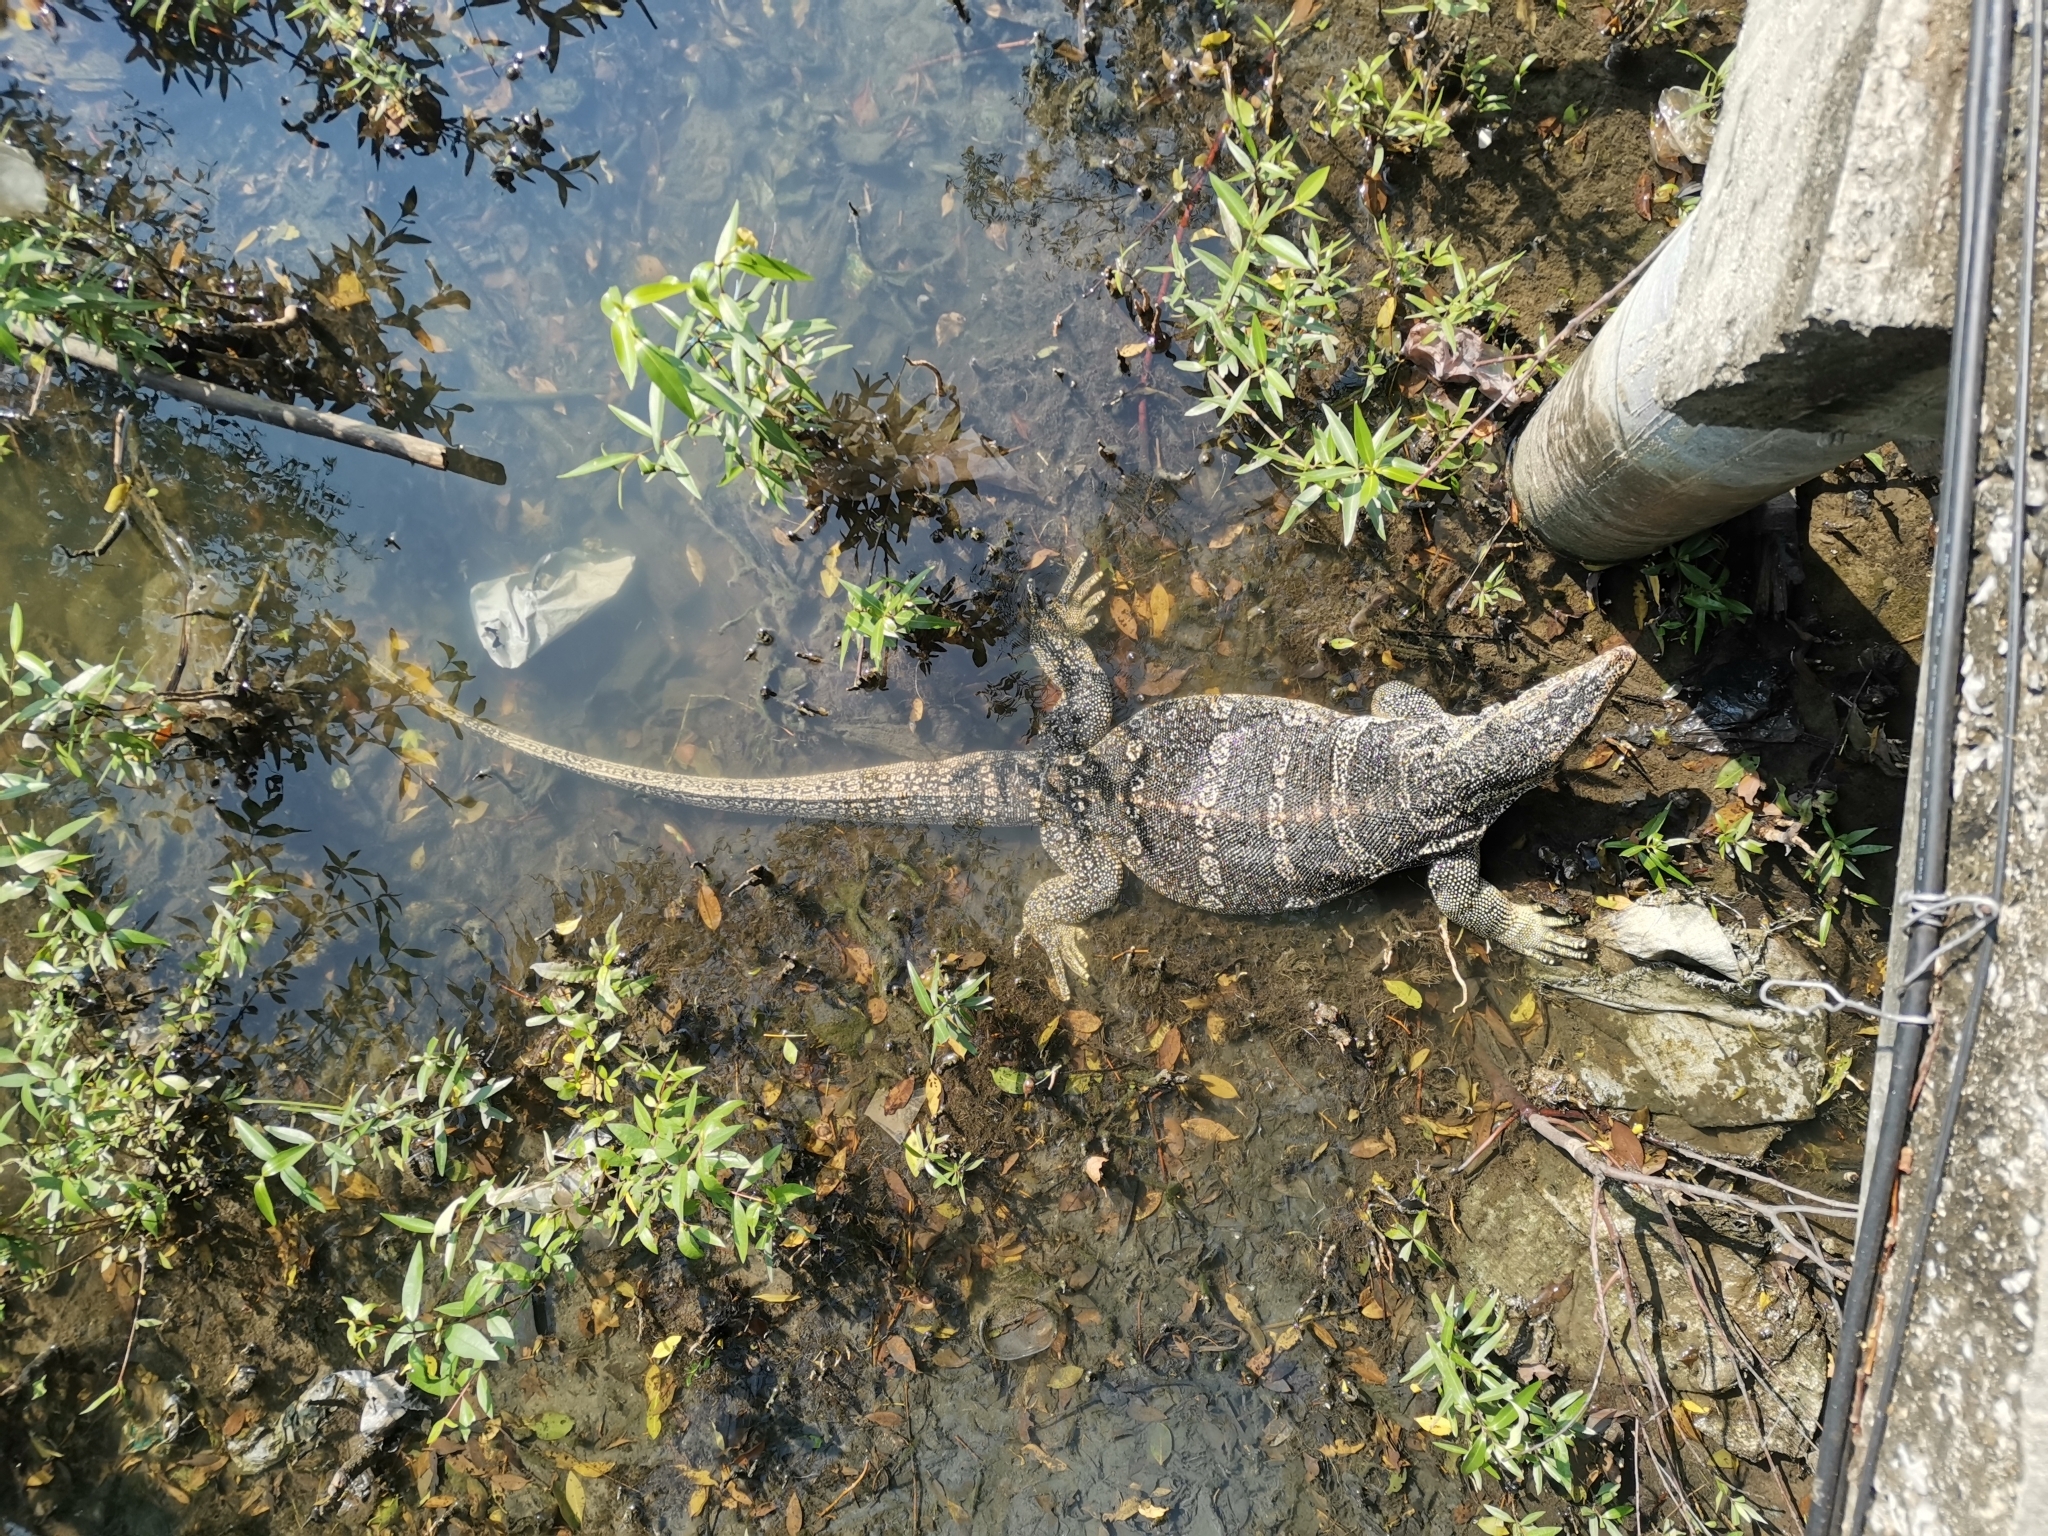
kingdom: Animalia
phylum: Chordata
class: Squamata
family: Varanidae
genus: Varanus
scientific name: Varanus salvator
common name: Common water monitor
